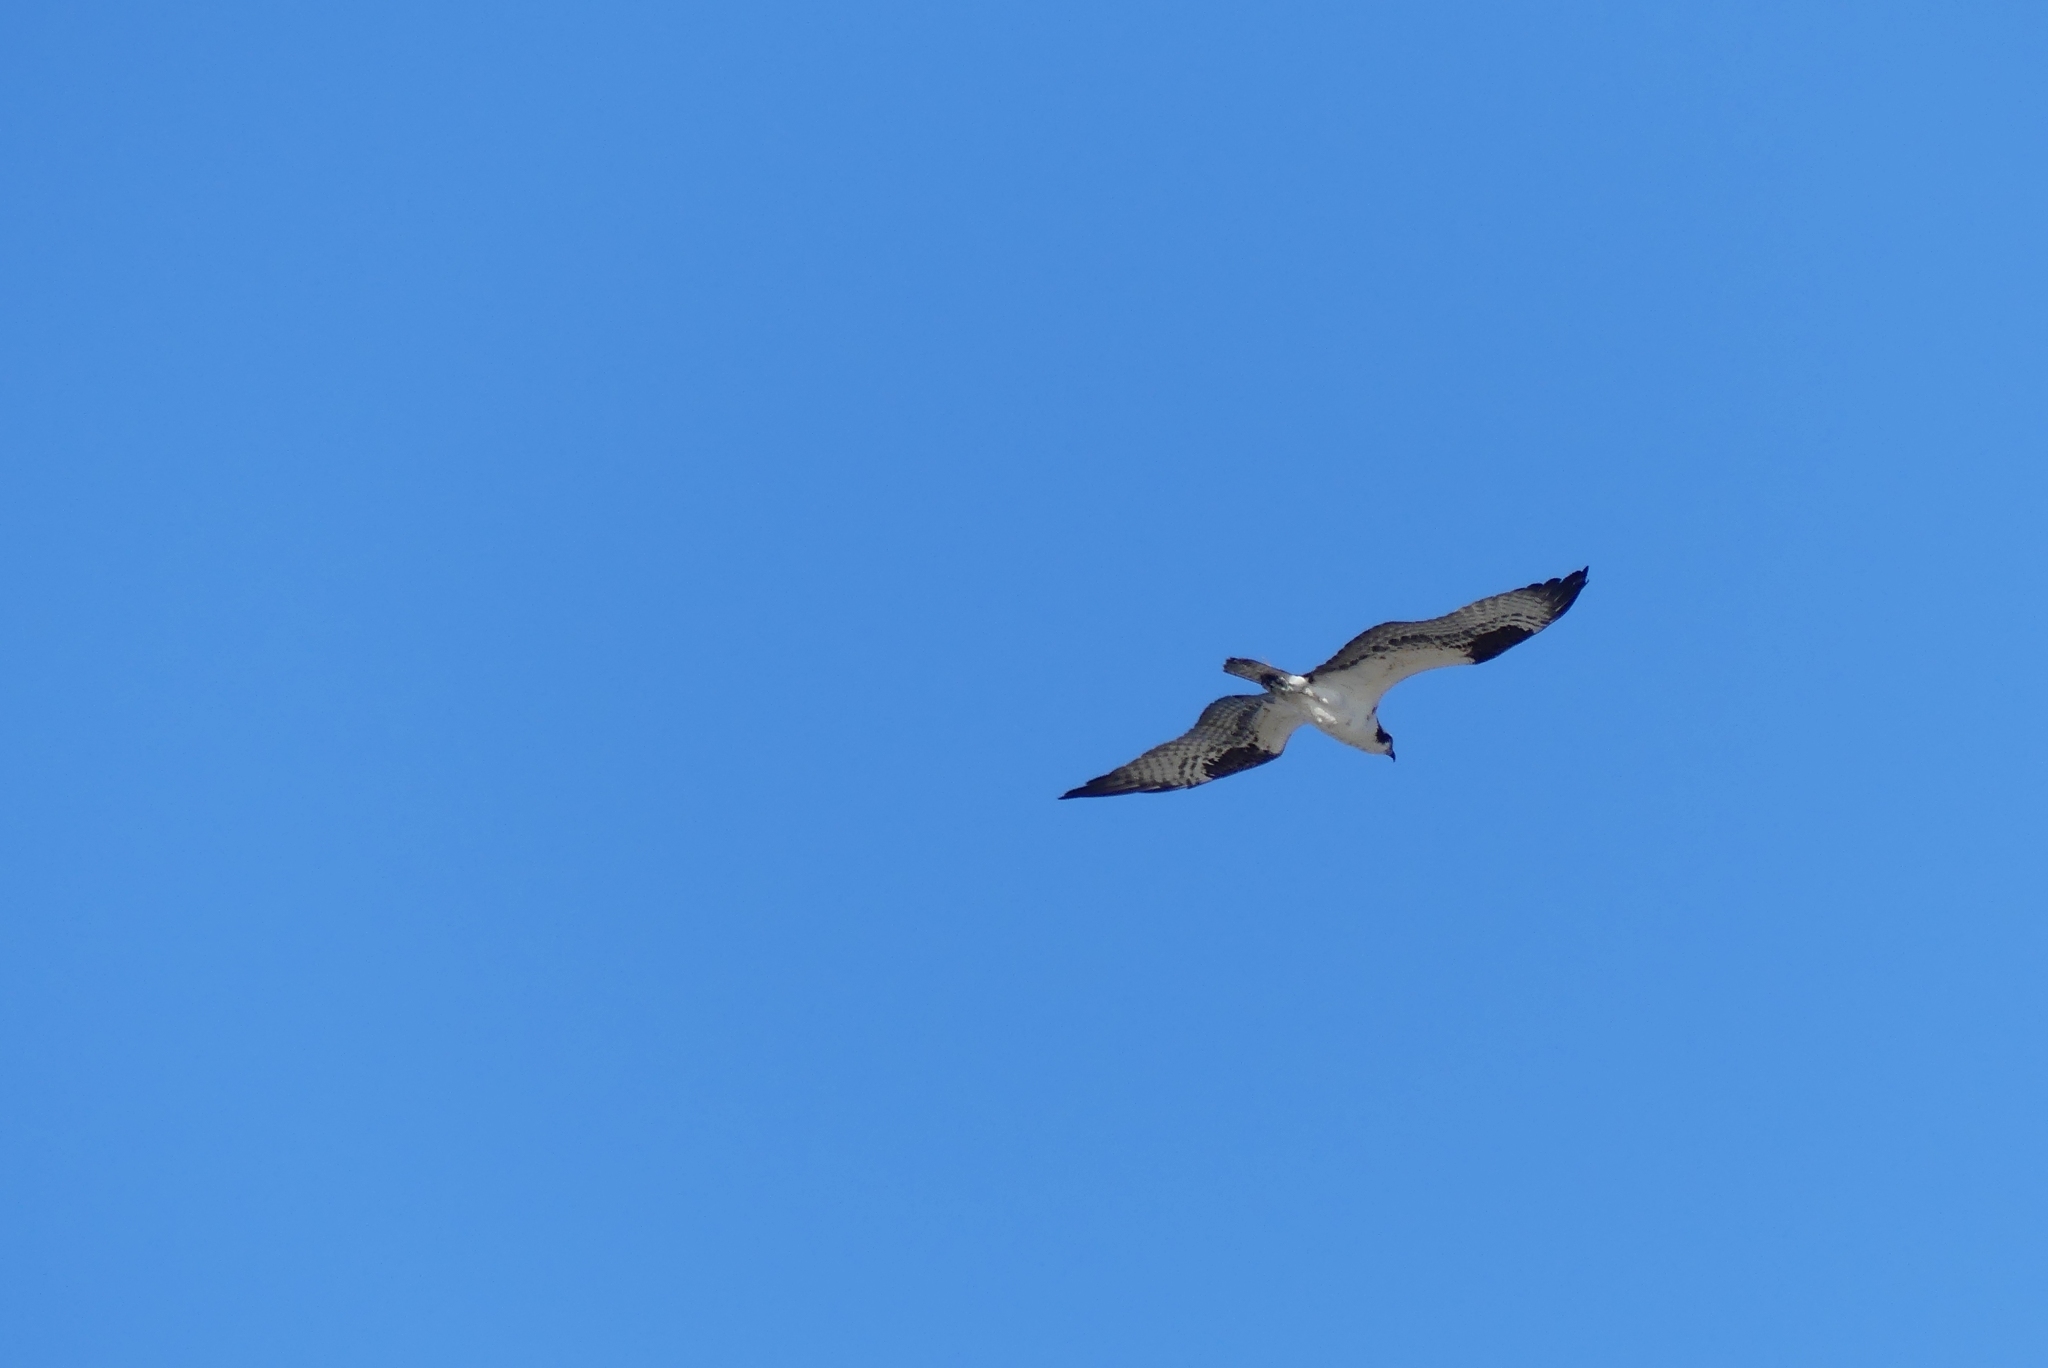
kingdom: Animalia
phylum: Chordata
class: Aves
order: Accipitriformes
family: Pandionidae
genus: Pandion
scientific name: Pandion haliaetus
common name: Osprey
